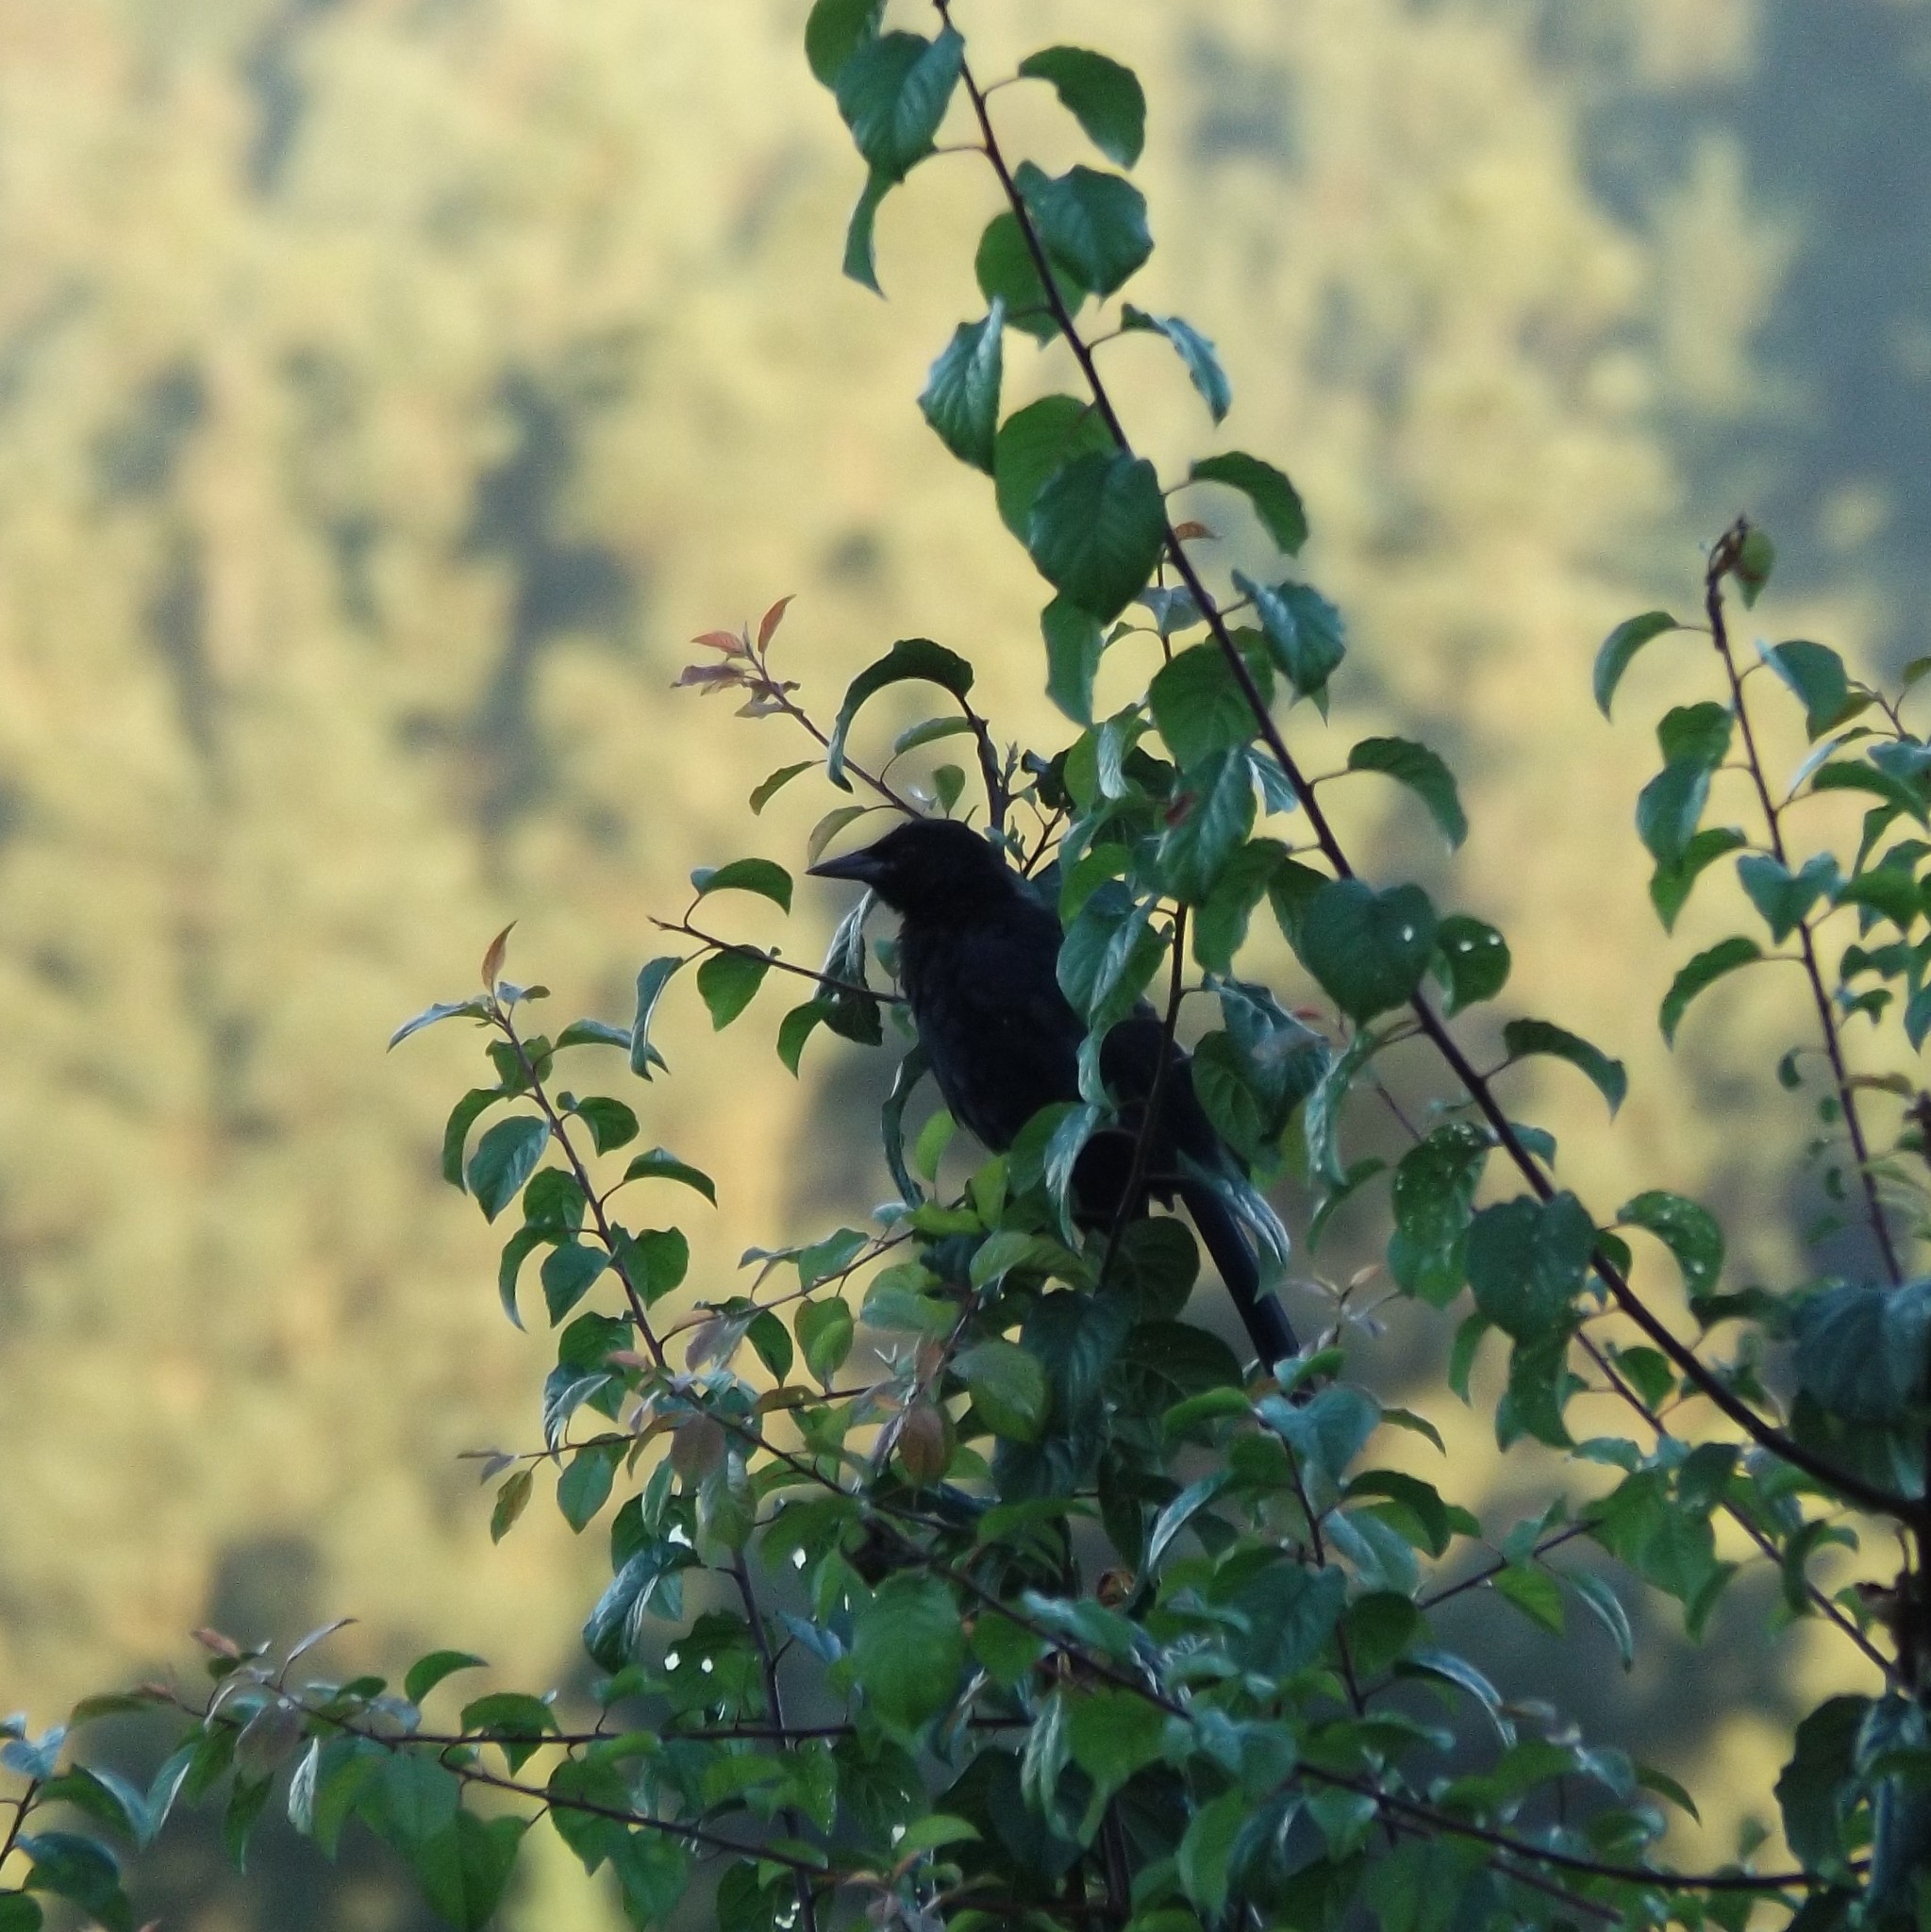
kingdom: Animalia
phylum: Chordata
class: Aves
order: Passeriformes
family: Icteridae
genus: Curaeus
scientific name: Curaeus curaeus
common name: Austral blackbird
